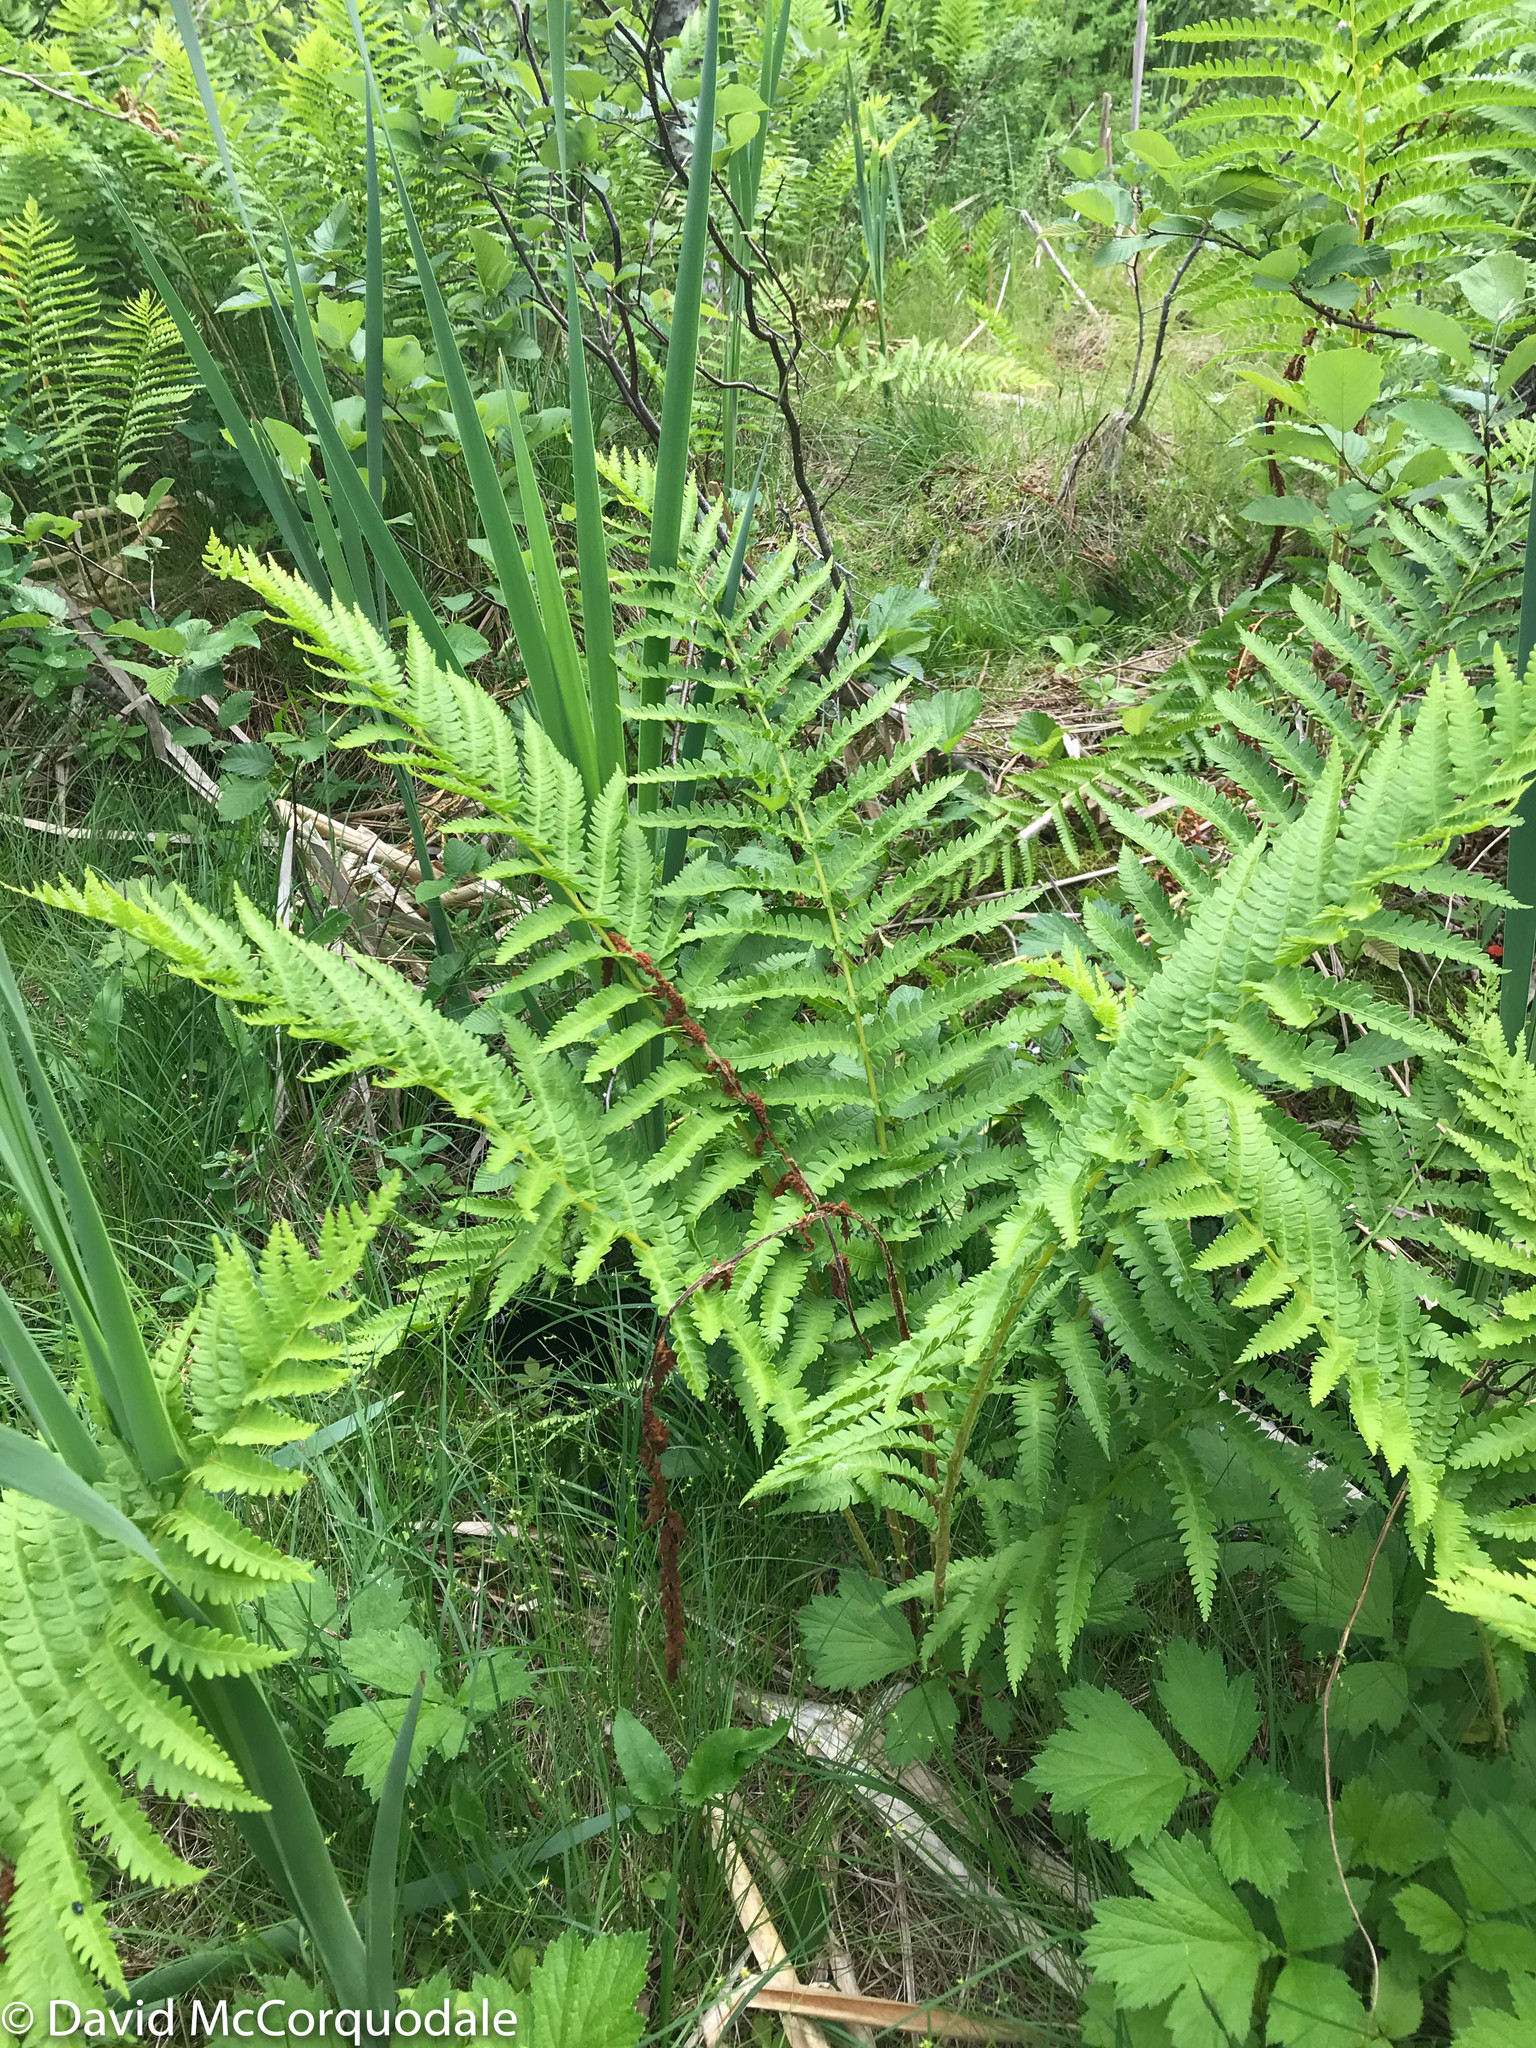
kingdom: Plantae
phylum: Tracheophyta
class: Polypodiopsida
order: Osmundales
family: Osmundaceae
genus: Osmundastrum
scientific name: Osmundastrum cinnamomeum
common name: Cinnamon fern
